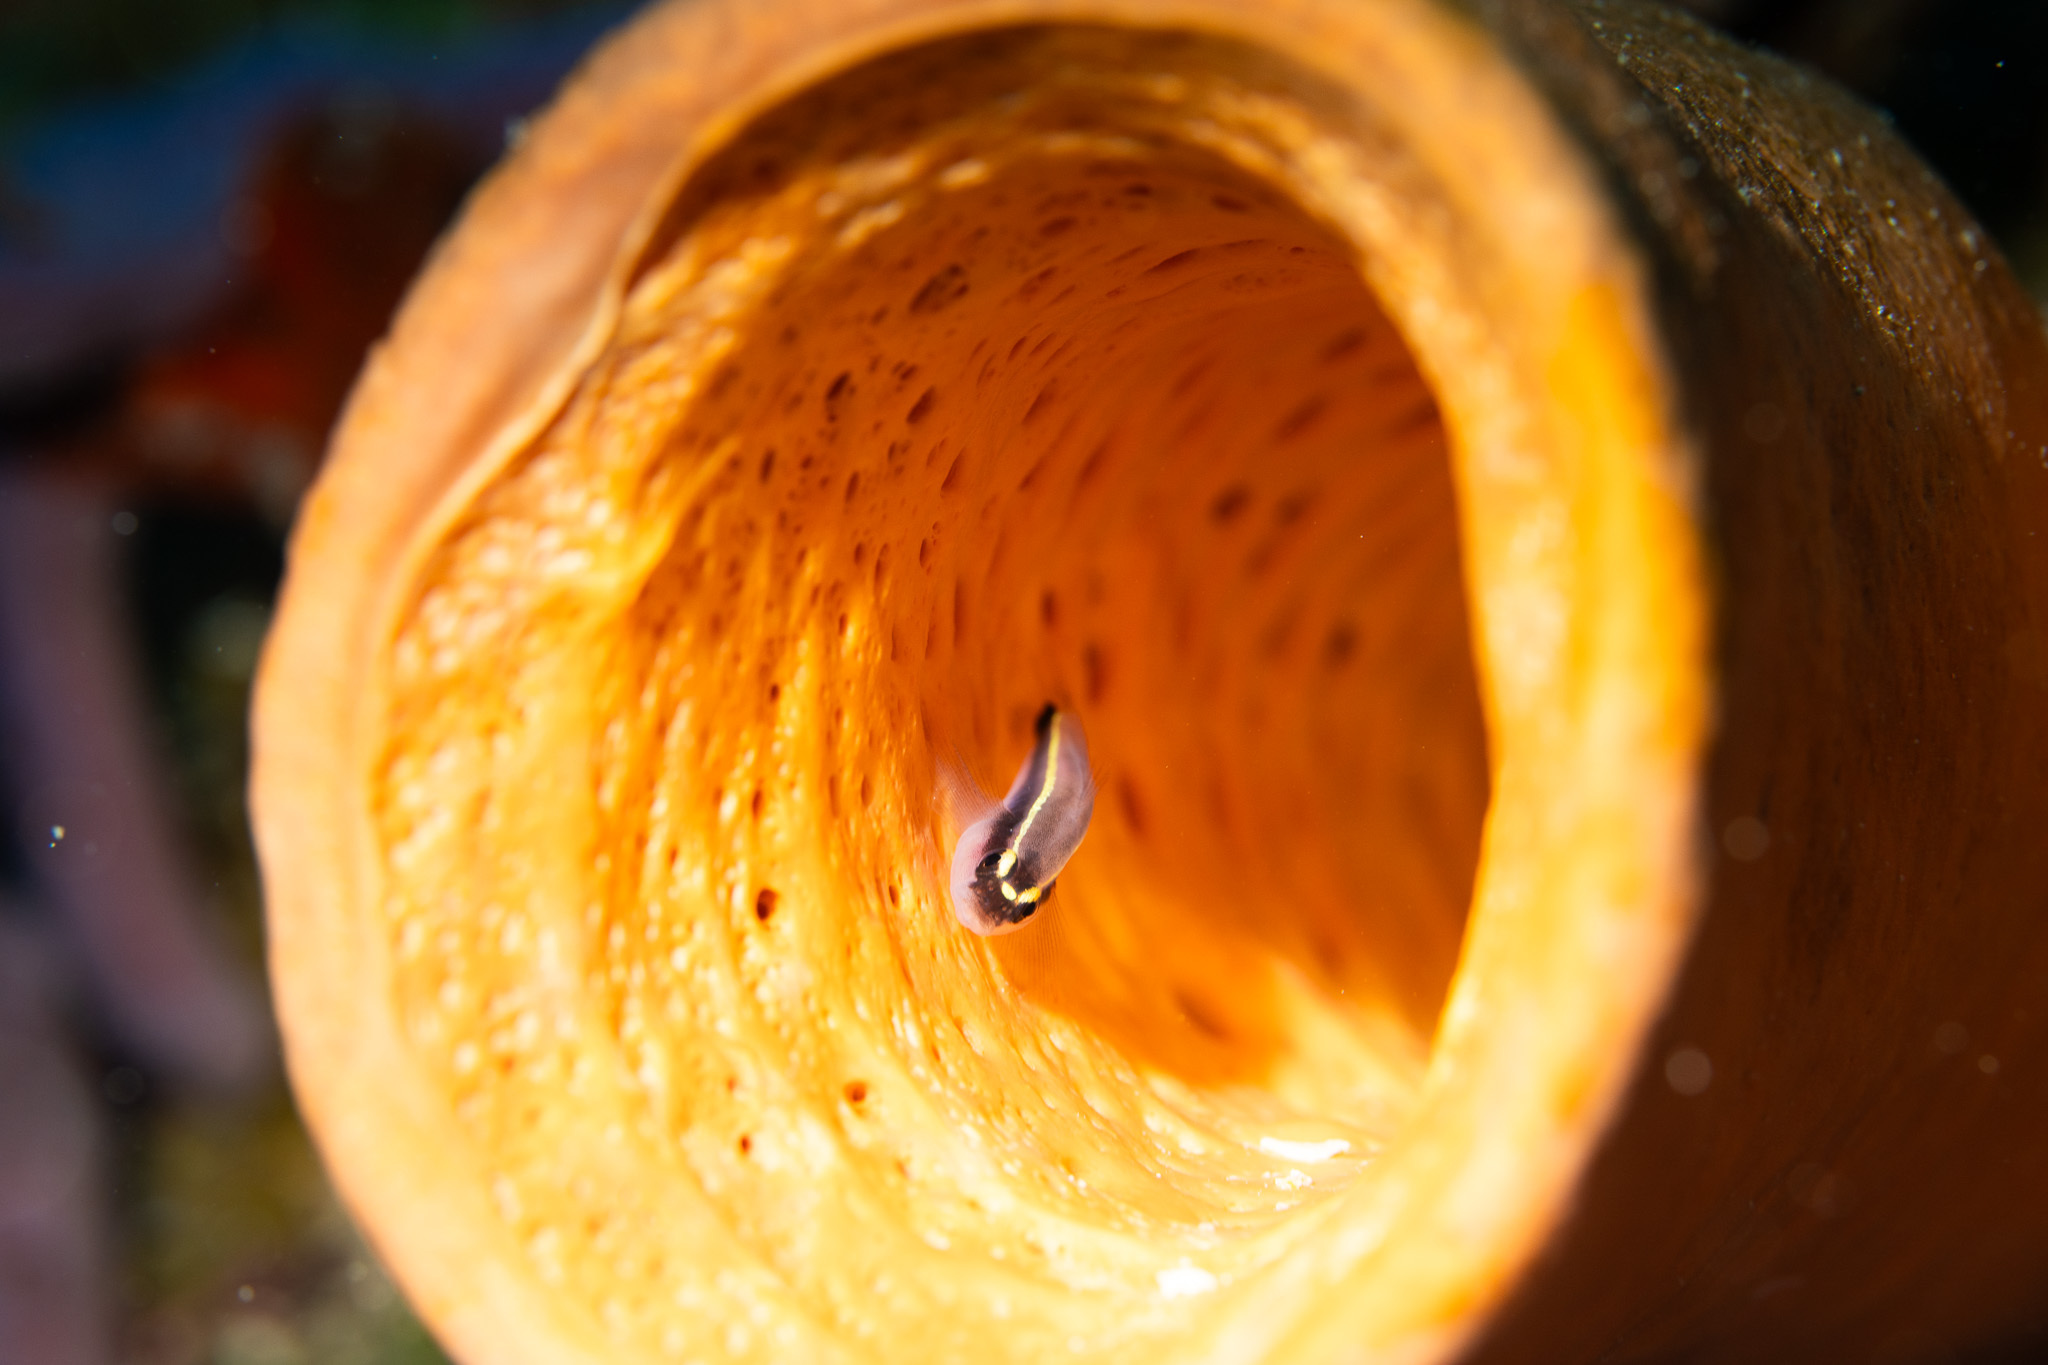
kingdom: Animalia
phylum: Chordata
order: Perciformes
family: Gobiidae
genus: Elacatinus
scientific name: Elacatinus louisae
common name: Spotlight goby
